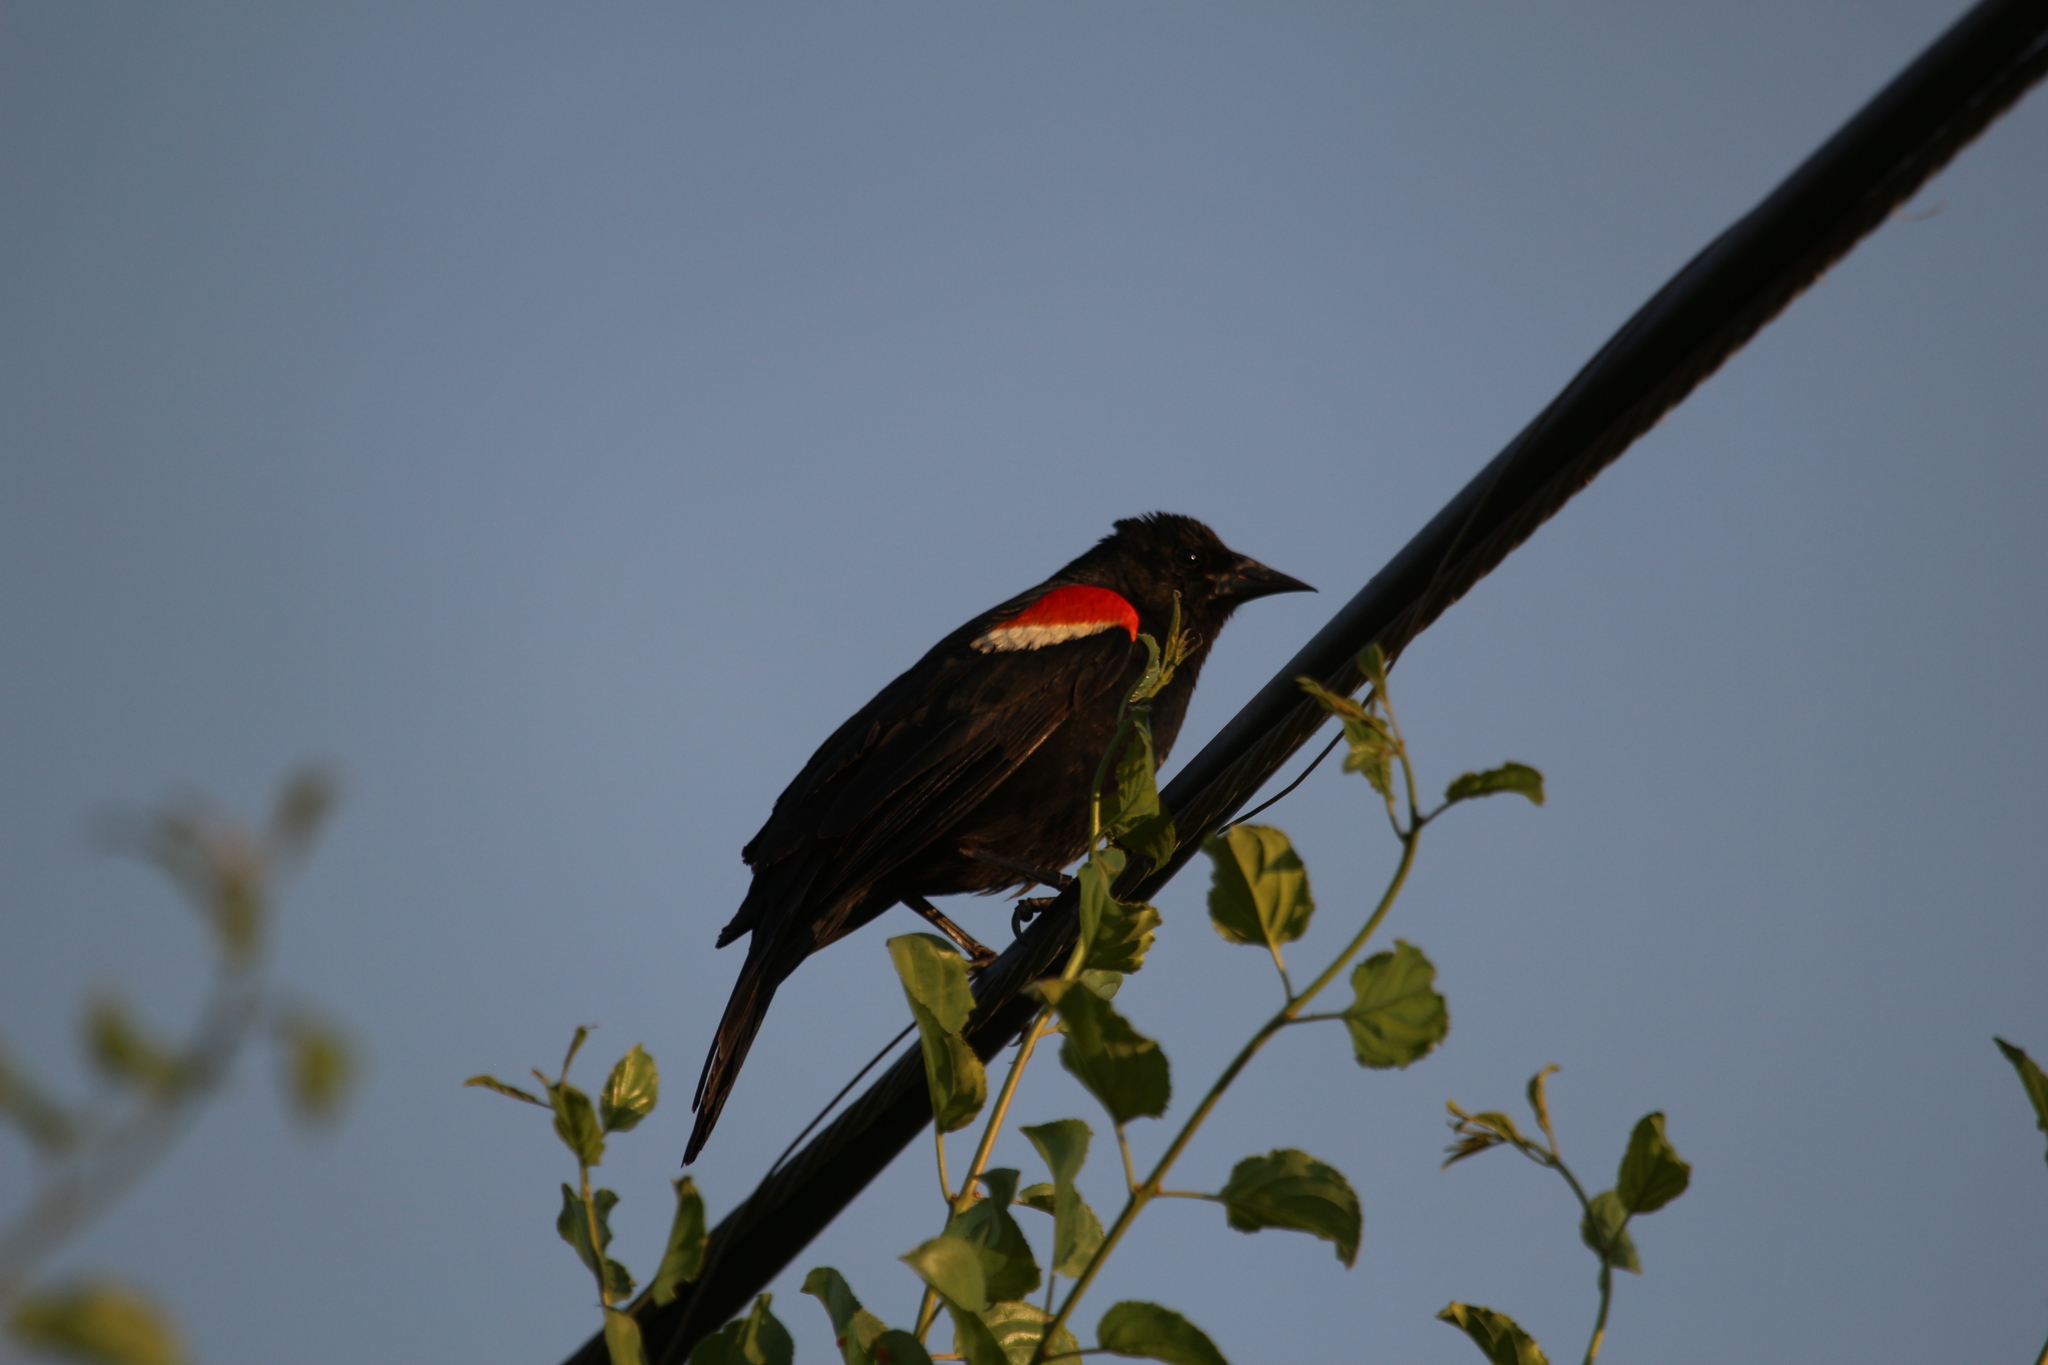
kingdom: Animalia
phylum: Chordata
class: Aves
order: Passeriformes
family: Icteridae
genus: Agelaius
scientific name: Agelaius phoeniceus
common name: Red-winged blackbird
